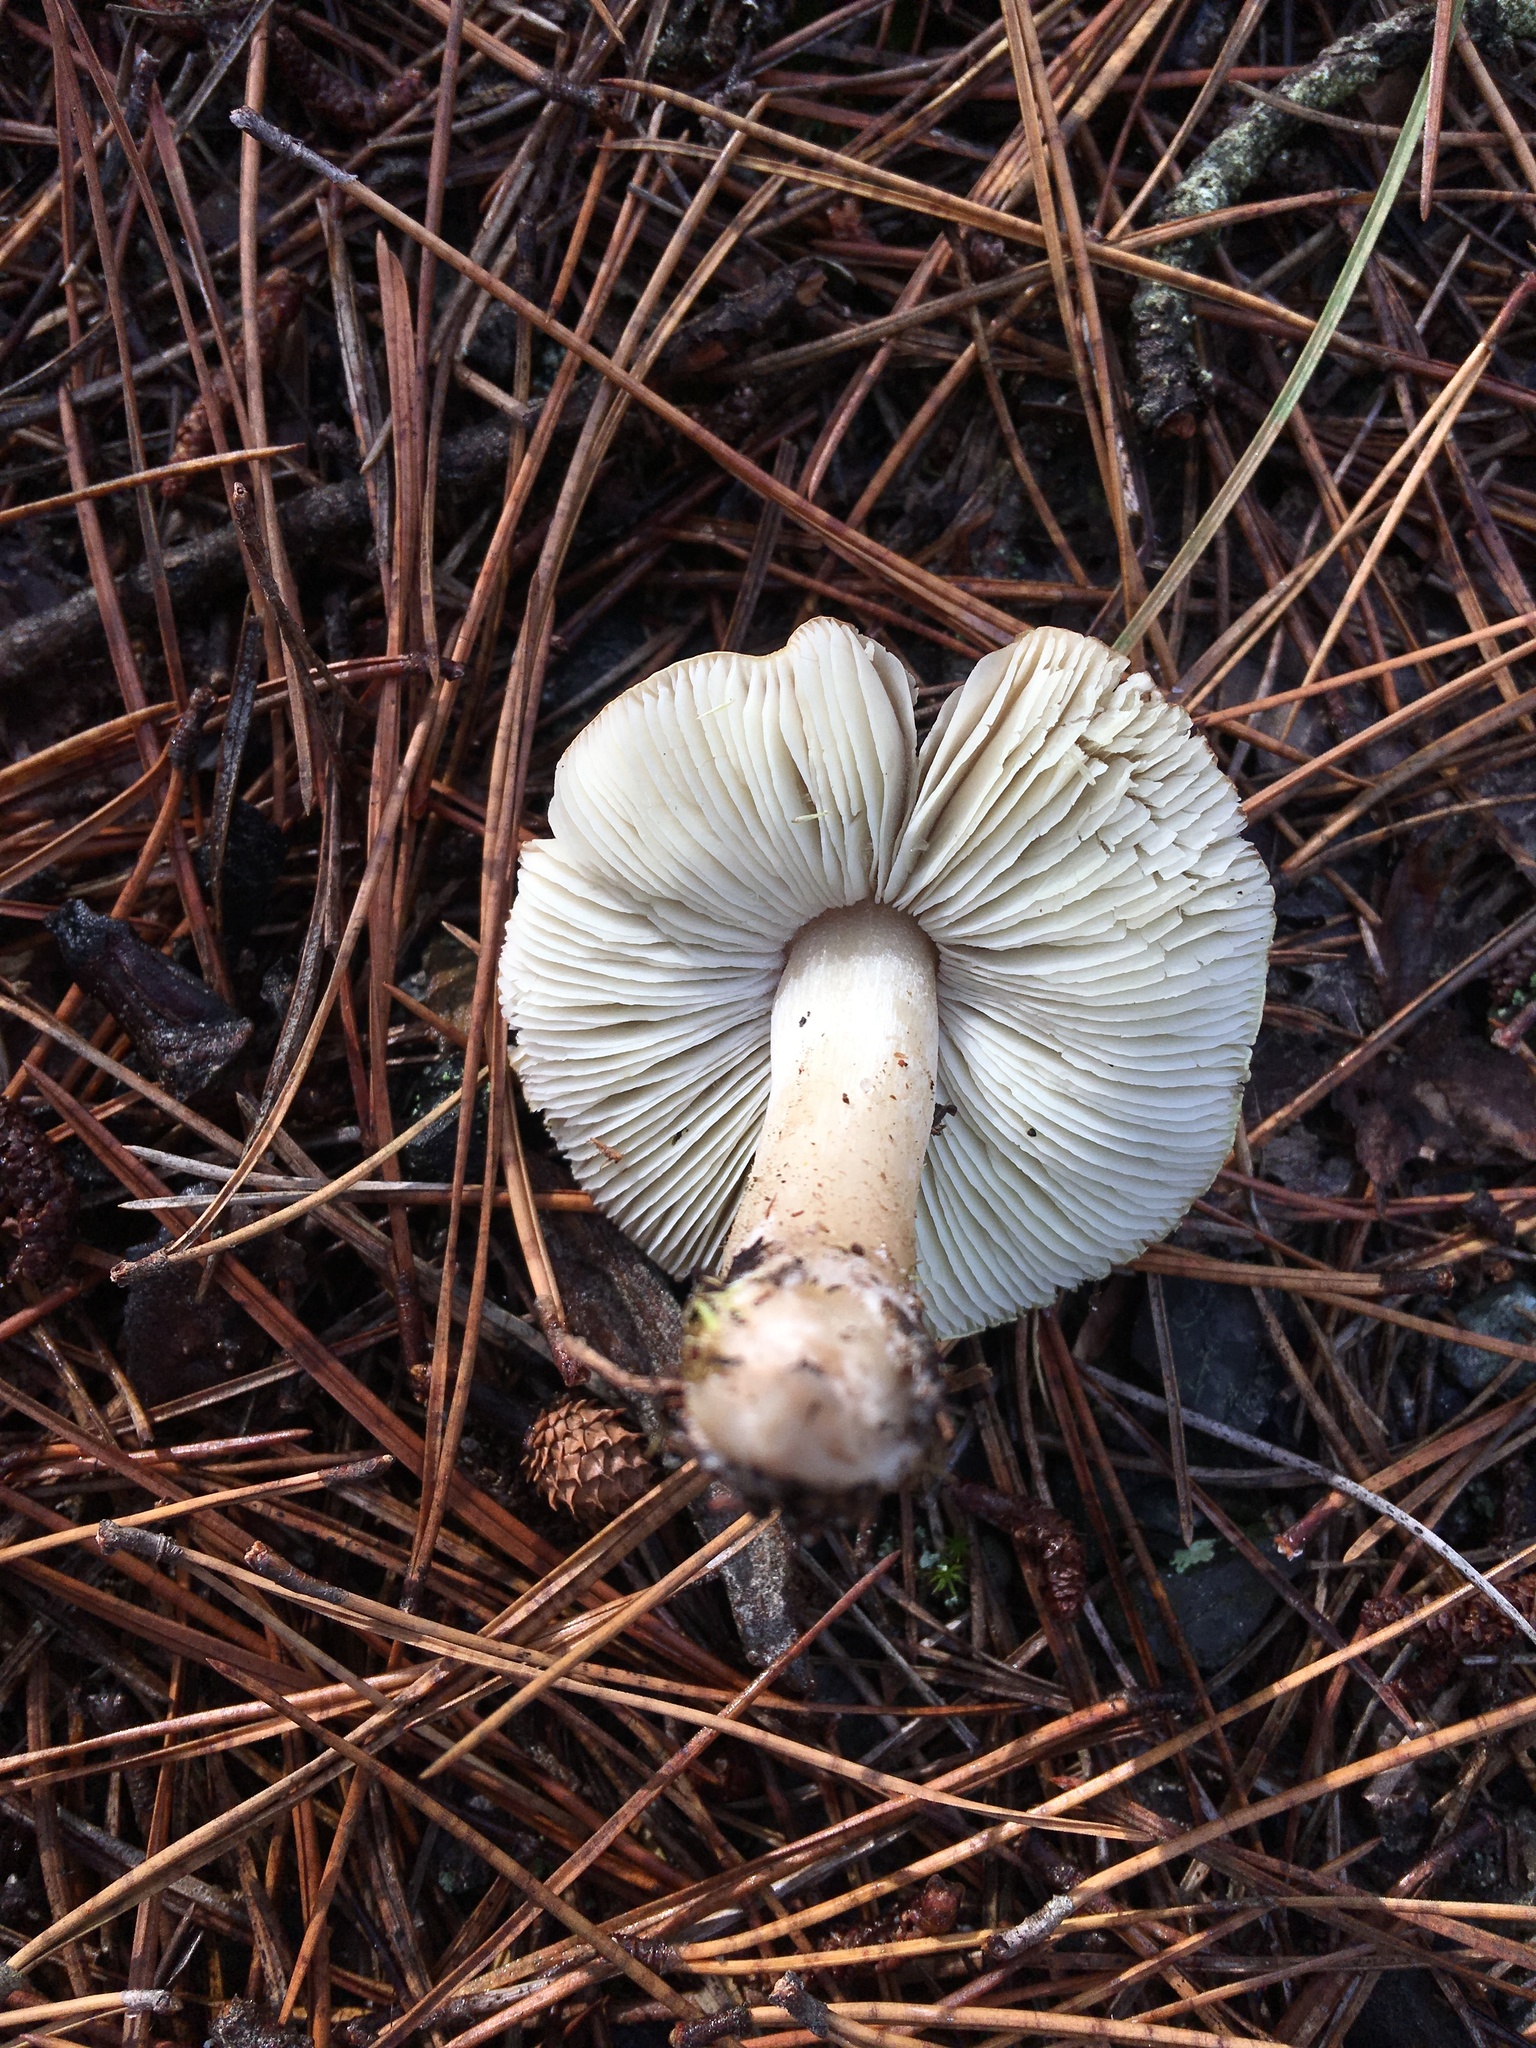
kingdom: Fungi
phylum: Basidiomycota
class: Agaricomycetes
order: Agaricales
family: Tricholomataceae
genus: Tricholoma
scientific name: Tricholoma sejunctum
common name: Deceiving knight
